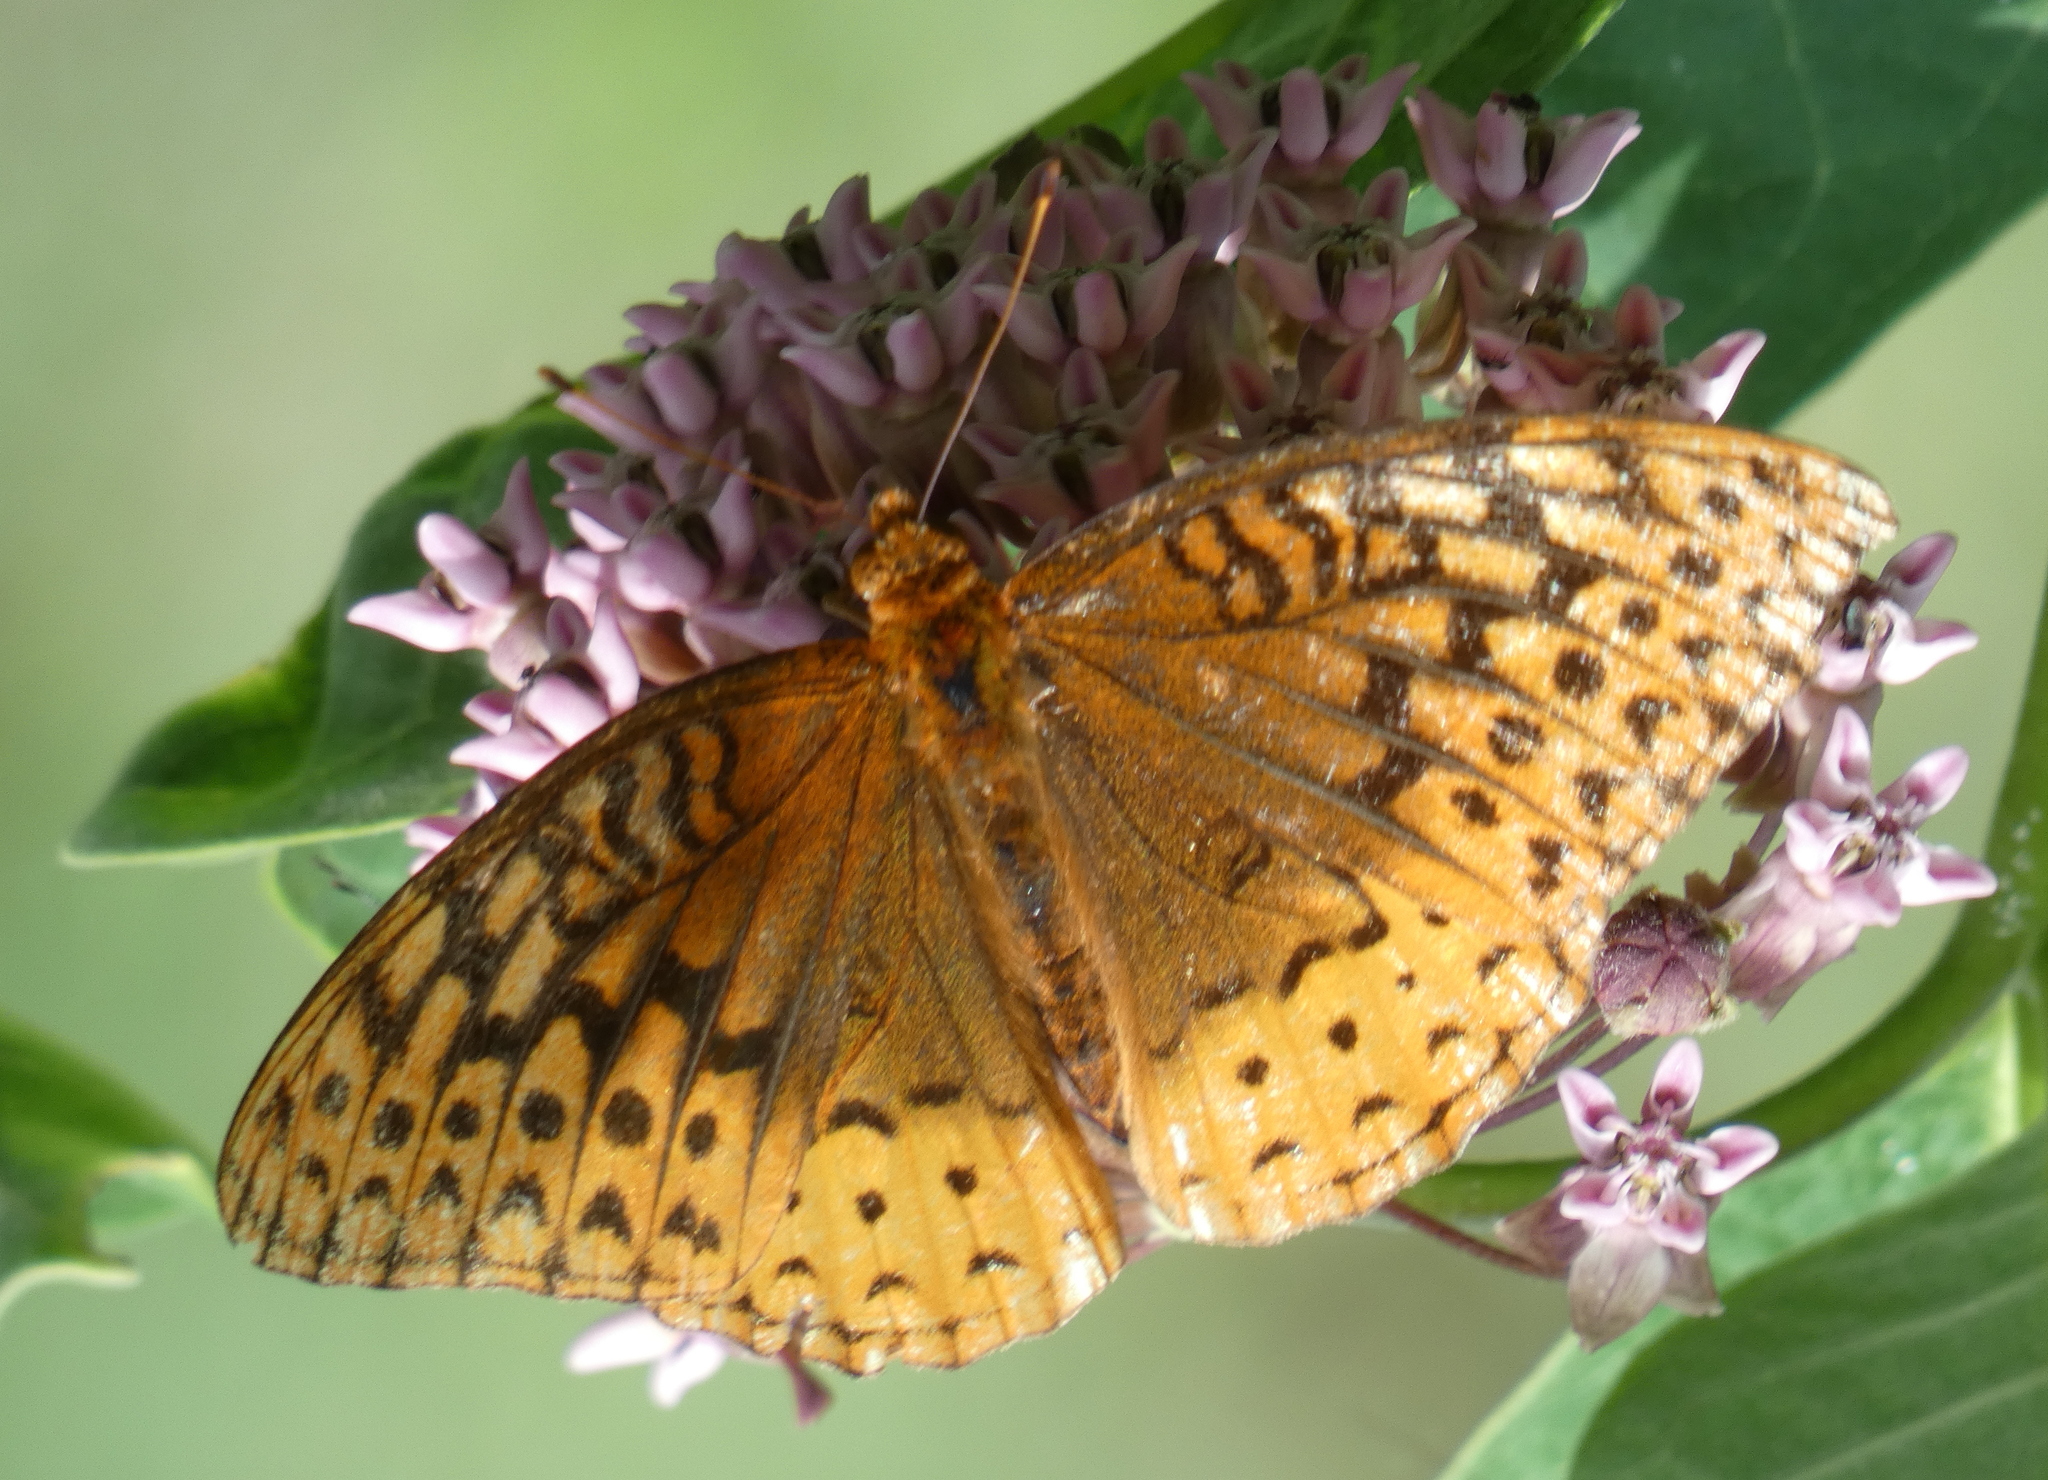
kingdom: Animalia
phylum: Arthropoda
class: Insecta
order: Lepidoptera
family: Nymphalidae
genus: Speyeria
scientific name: Speyeria cybele
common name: Great spangled fritillary
